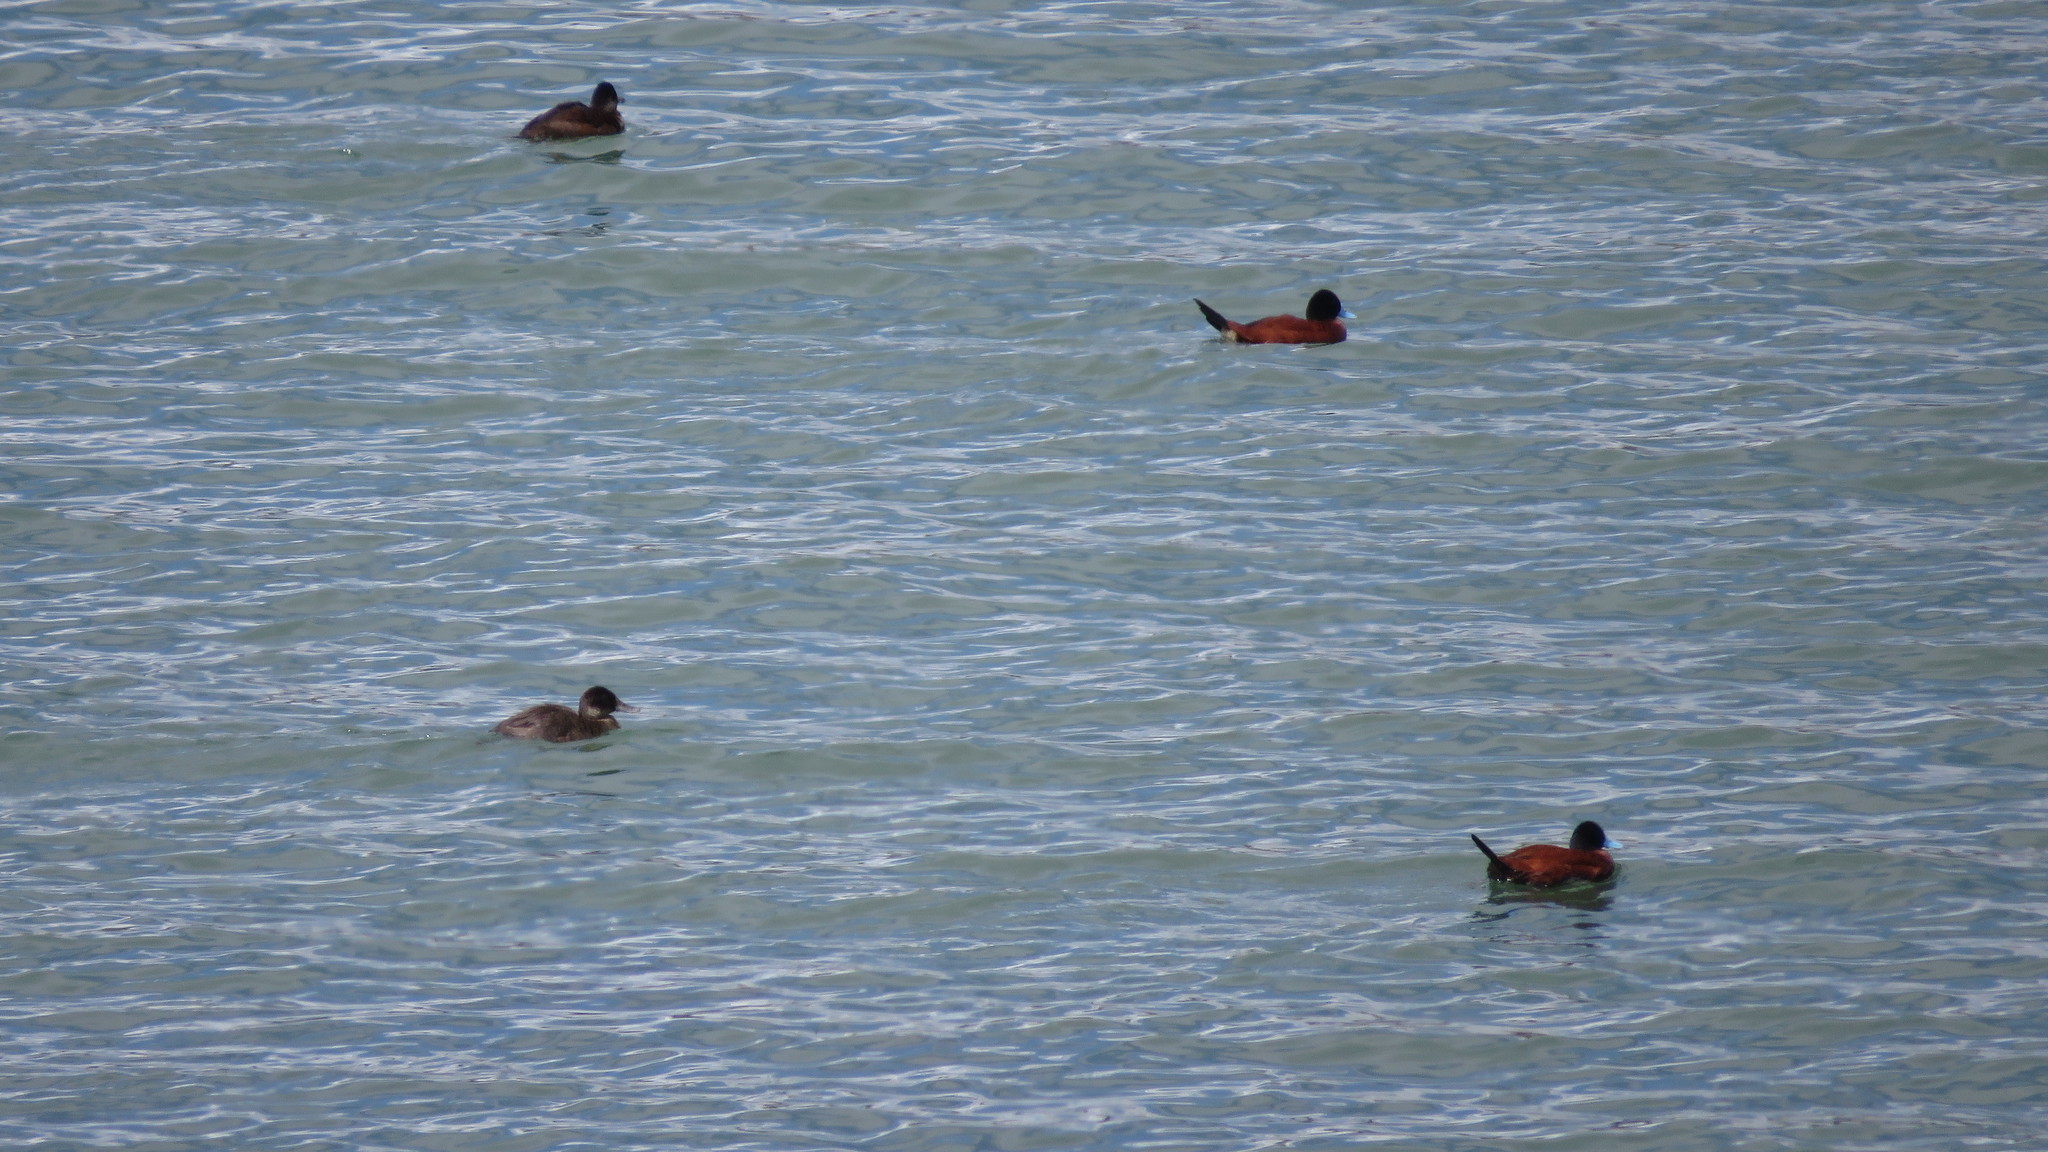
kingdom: Animalia
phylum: Chordata
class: Aves
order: Anseriformes
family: Anatidae
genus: Oxyura
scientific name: Oxyura ferruginea
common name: Andean duck
